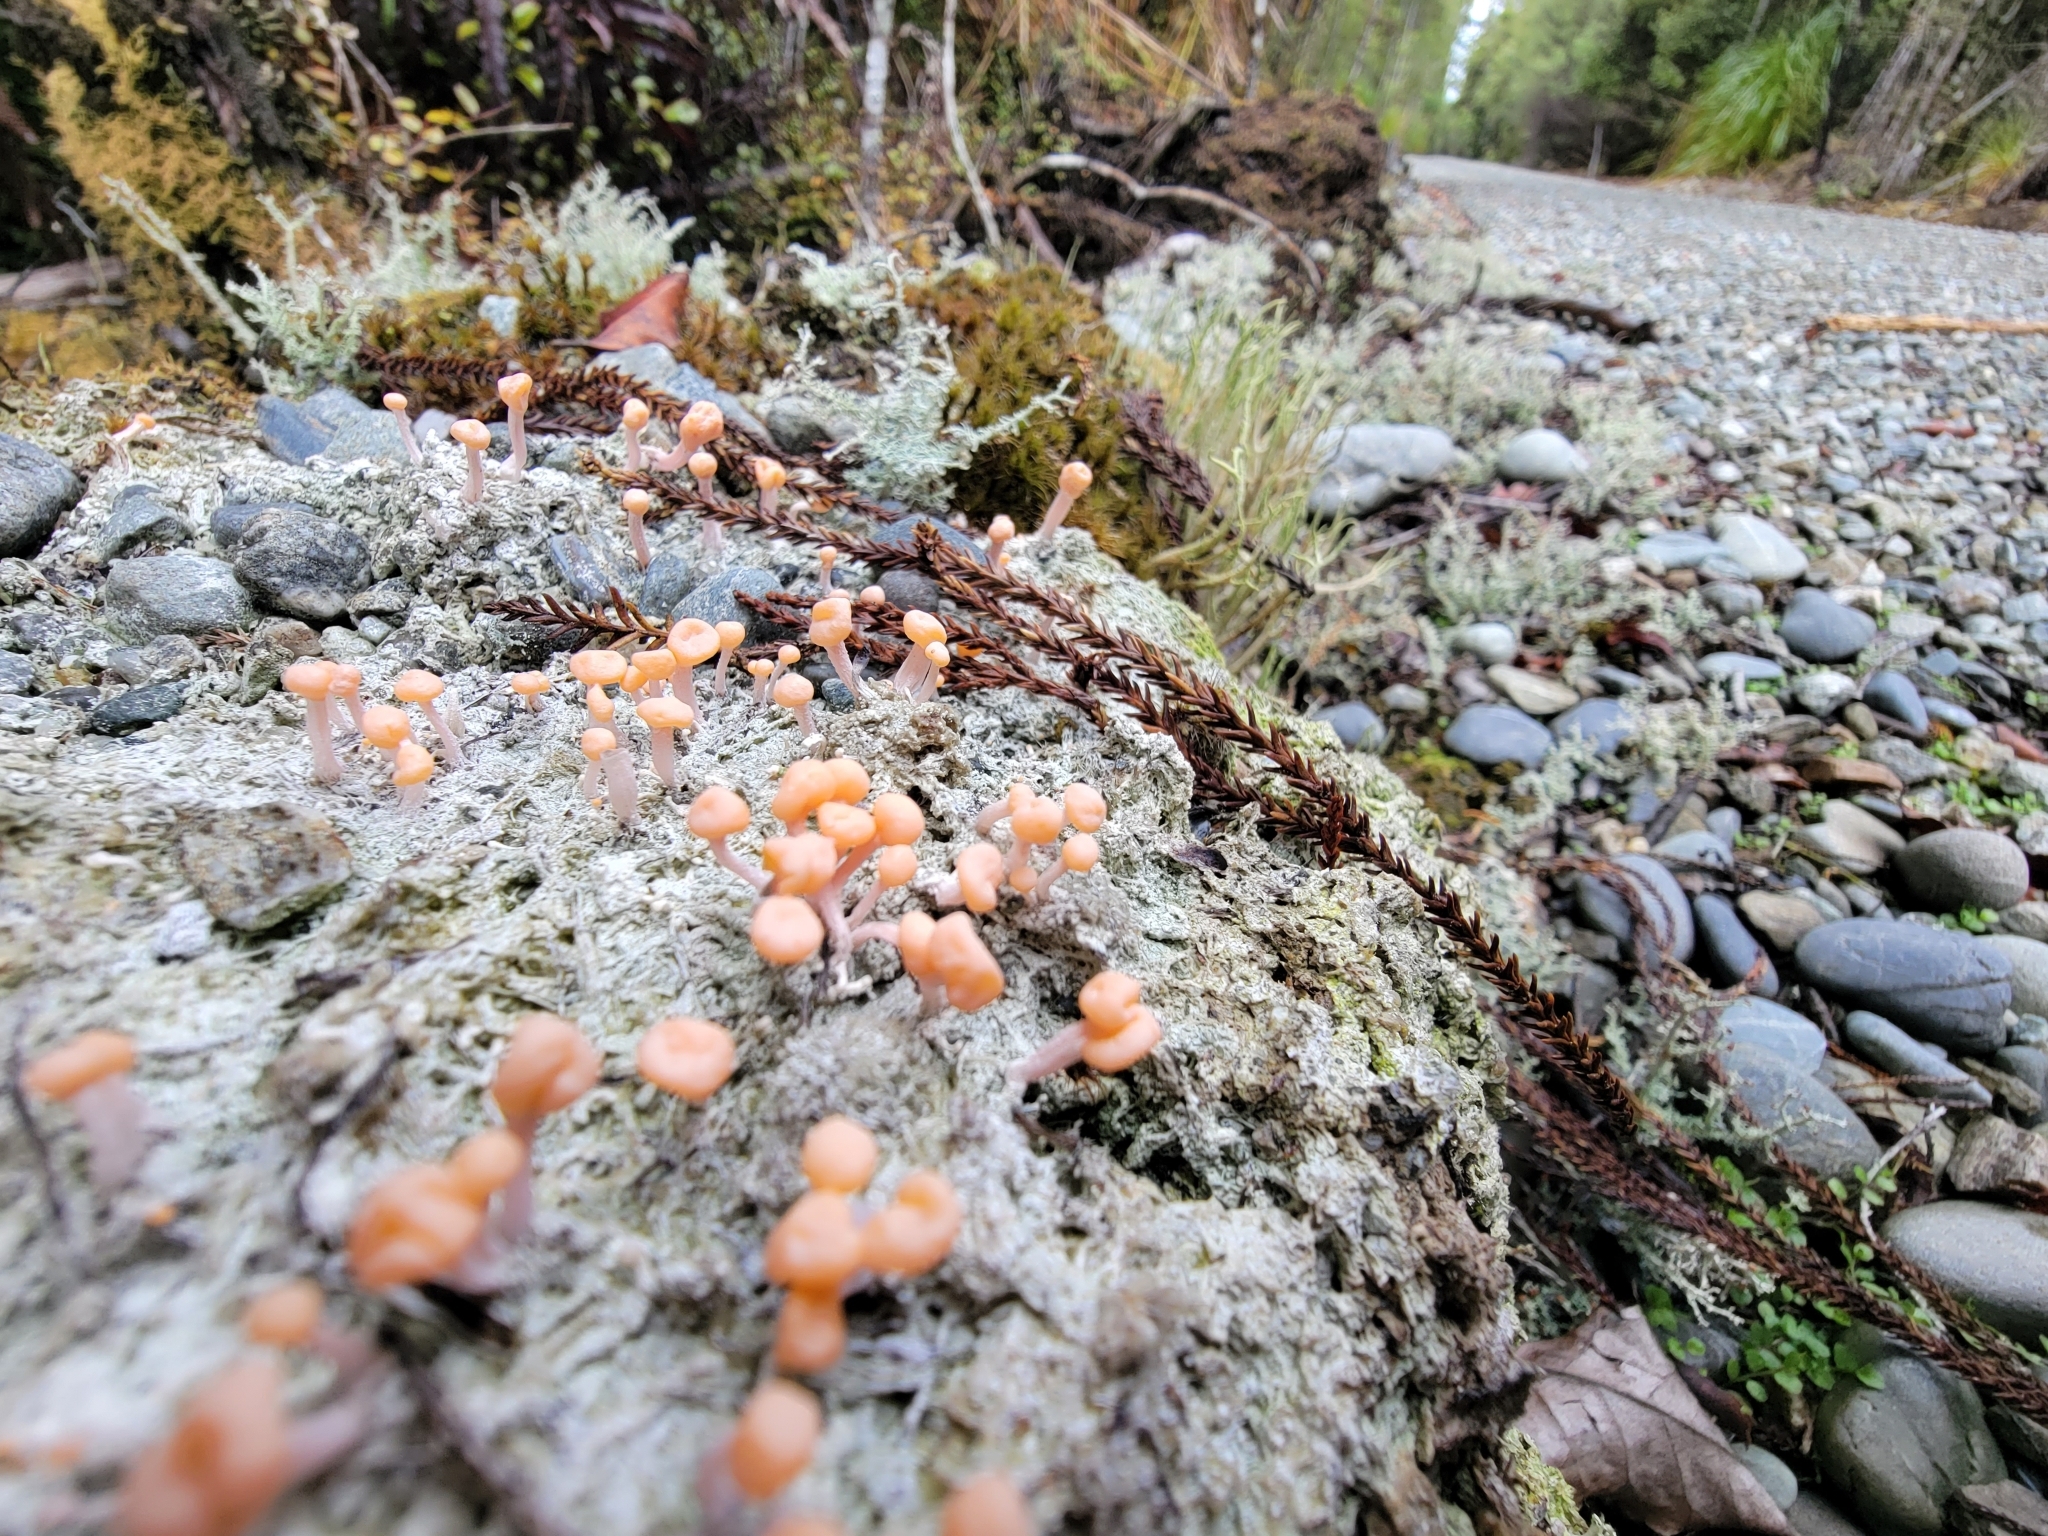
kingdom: Fungi
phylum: Ascomycota
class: Lecanoromycetes
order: Pertusariales
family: Icmadophilaceae
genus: Dibaeis
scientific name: Dibaeis arcuata
